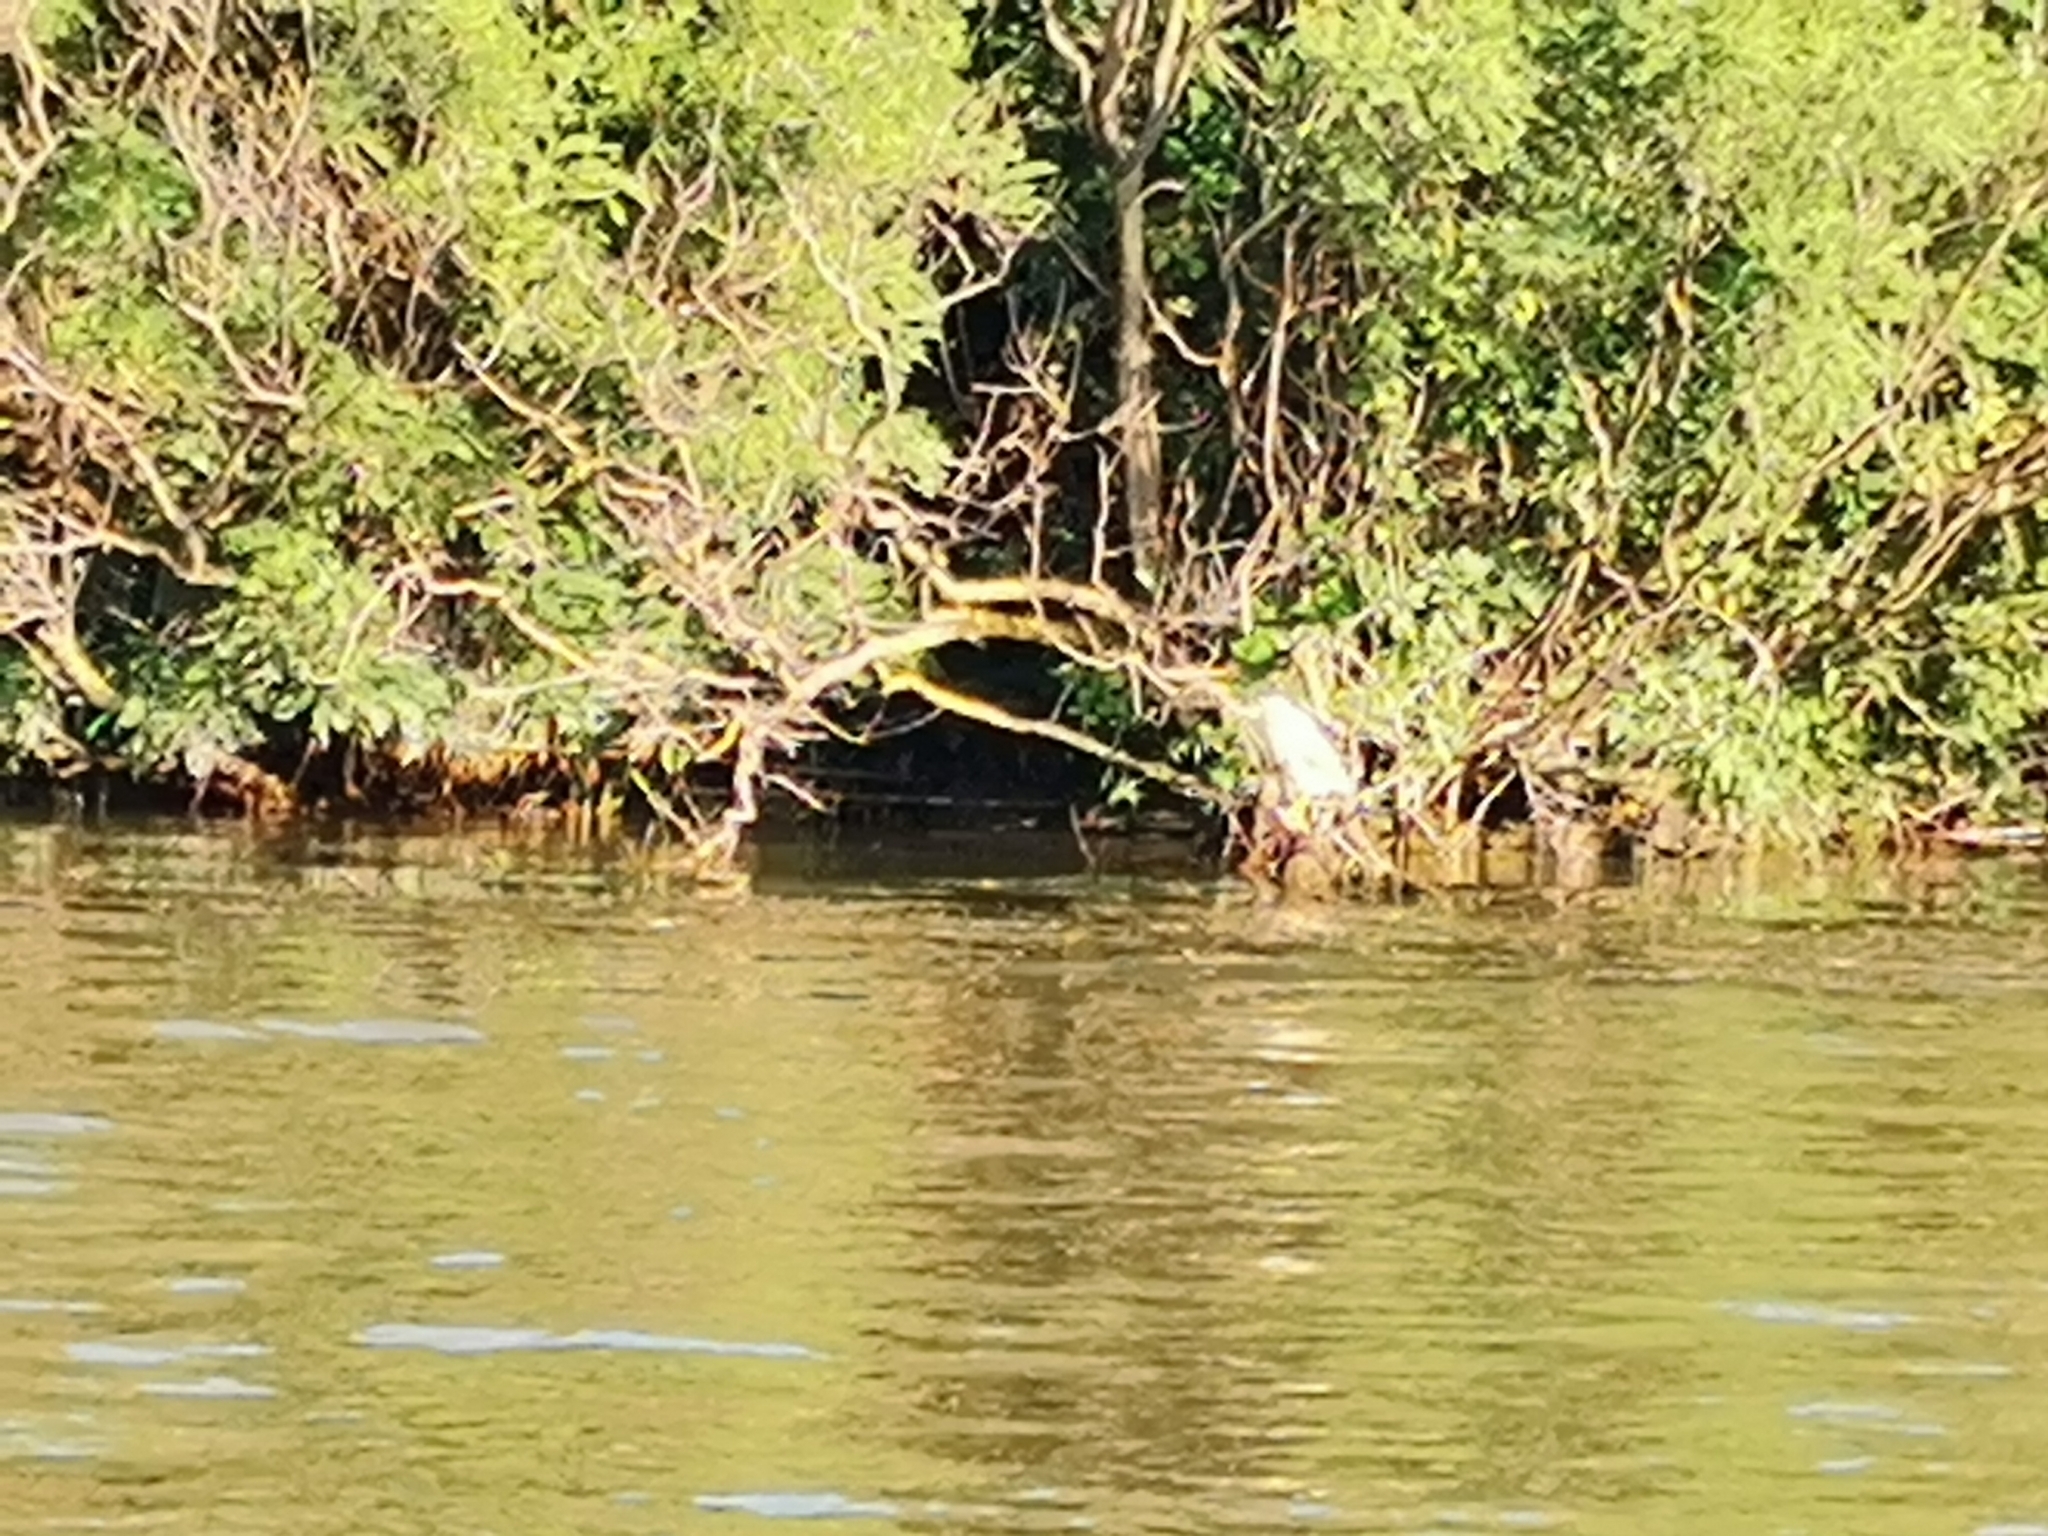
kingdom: Animalia
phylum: Chordata
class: Aves
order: Pelecaniformes
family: Ardeidae
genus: Nycticorax
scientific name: Nycticorax nycticorax
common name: Black-crowned night heron
